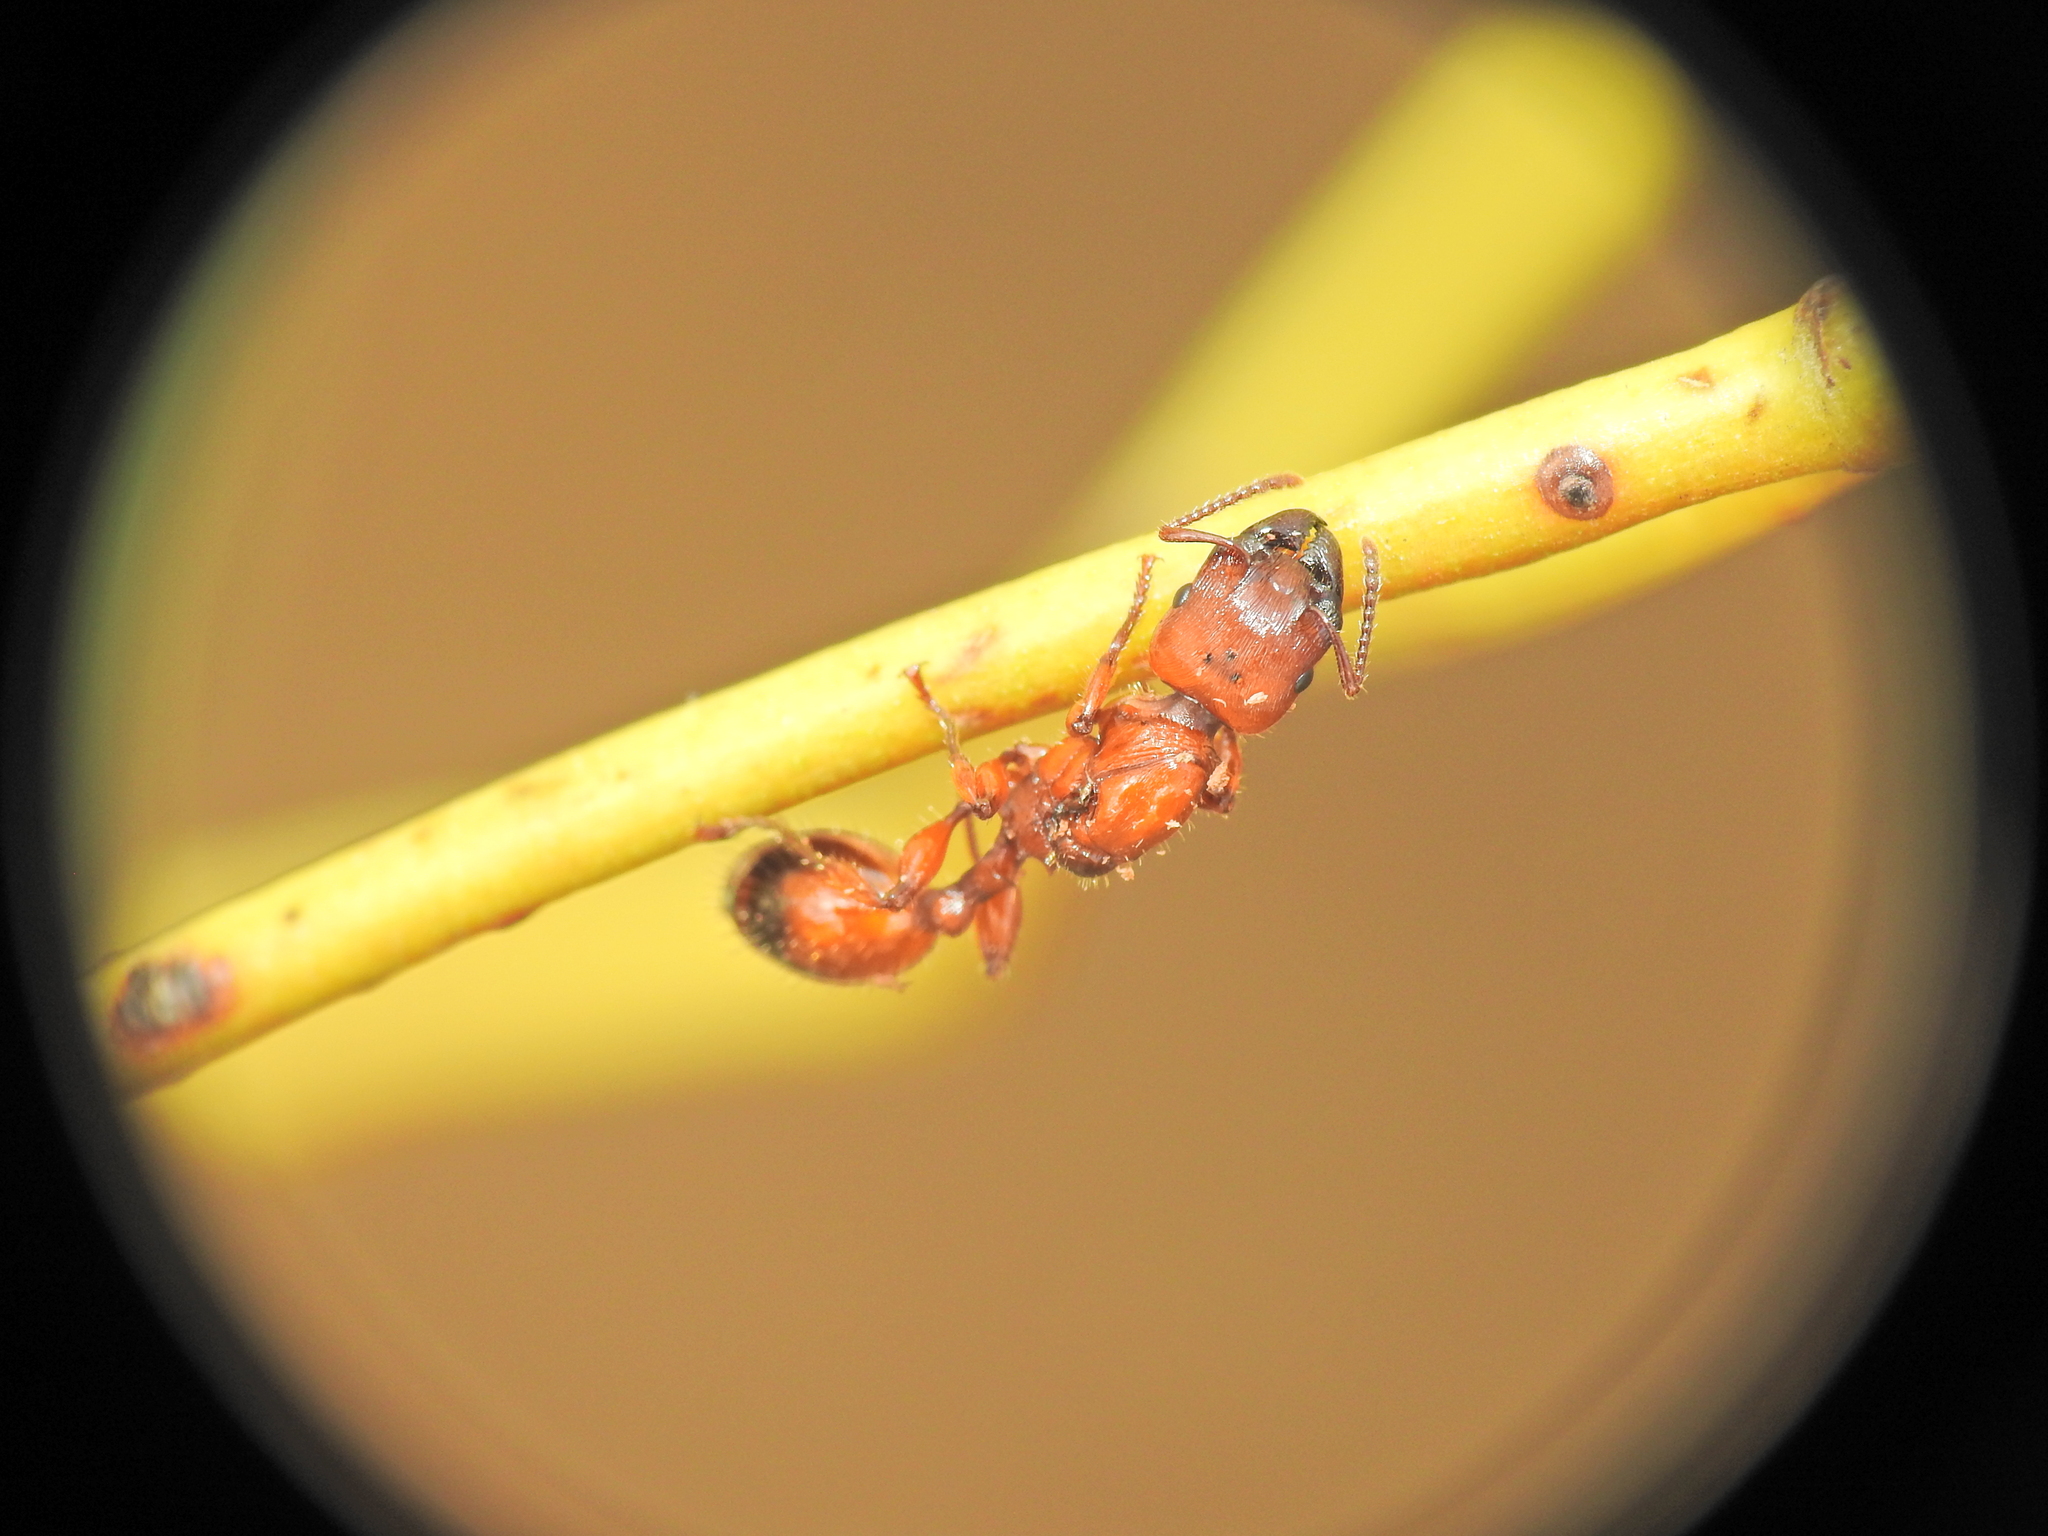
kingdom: Animalia
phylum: Arthropoda
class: Insecta
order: Hymenoptera
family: Formicidae
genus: Podomyrma
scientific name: Podomyrma gratiosa
